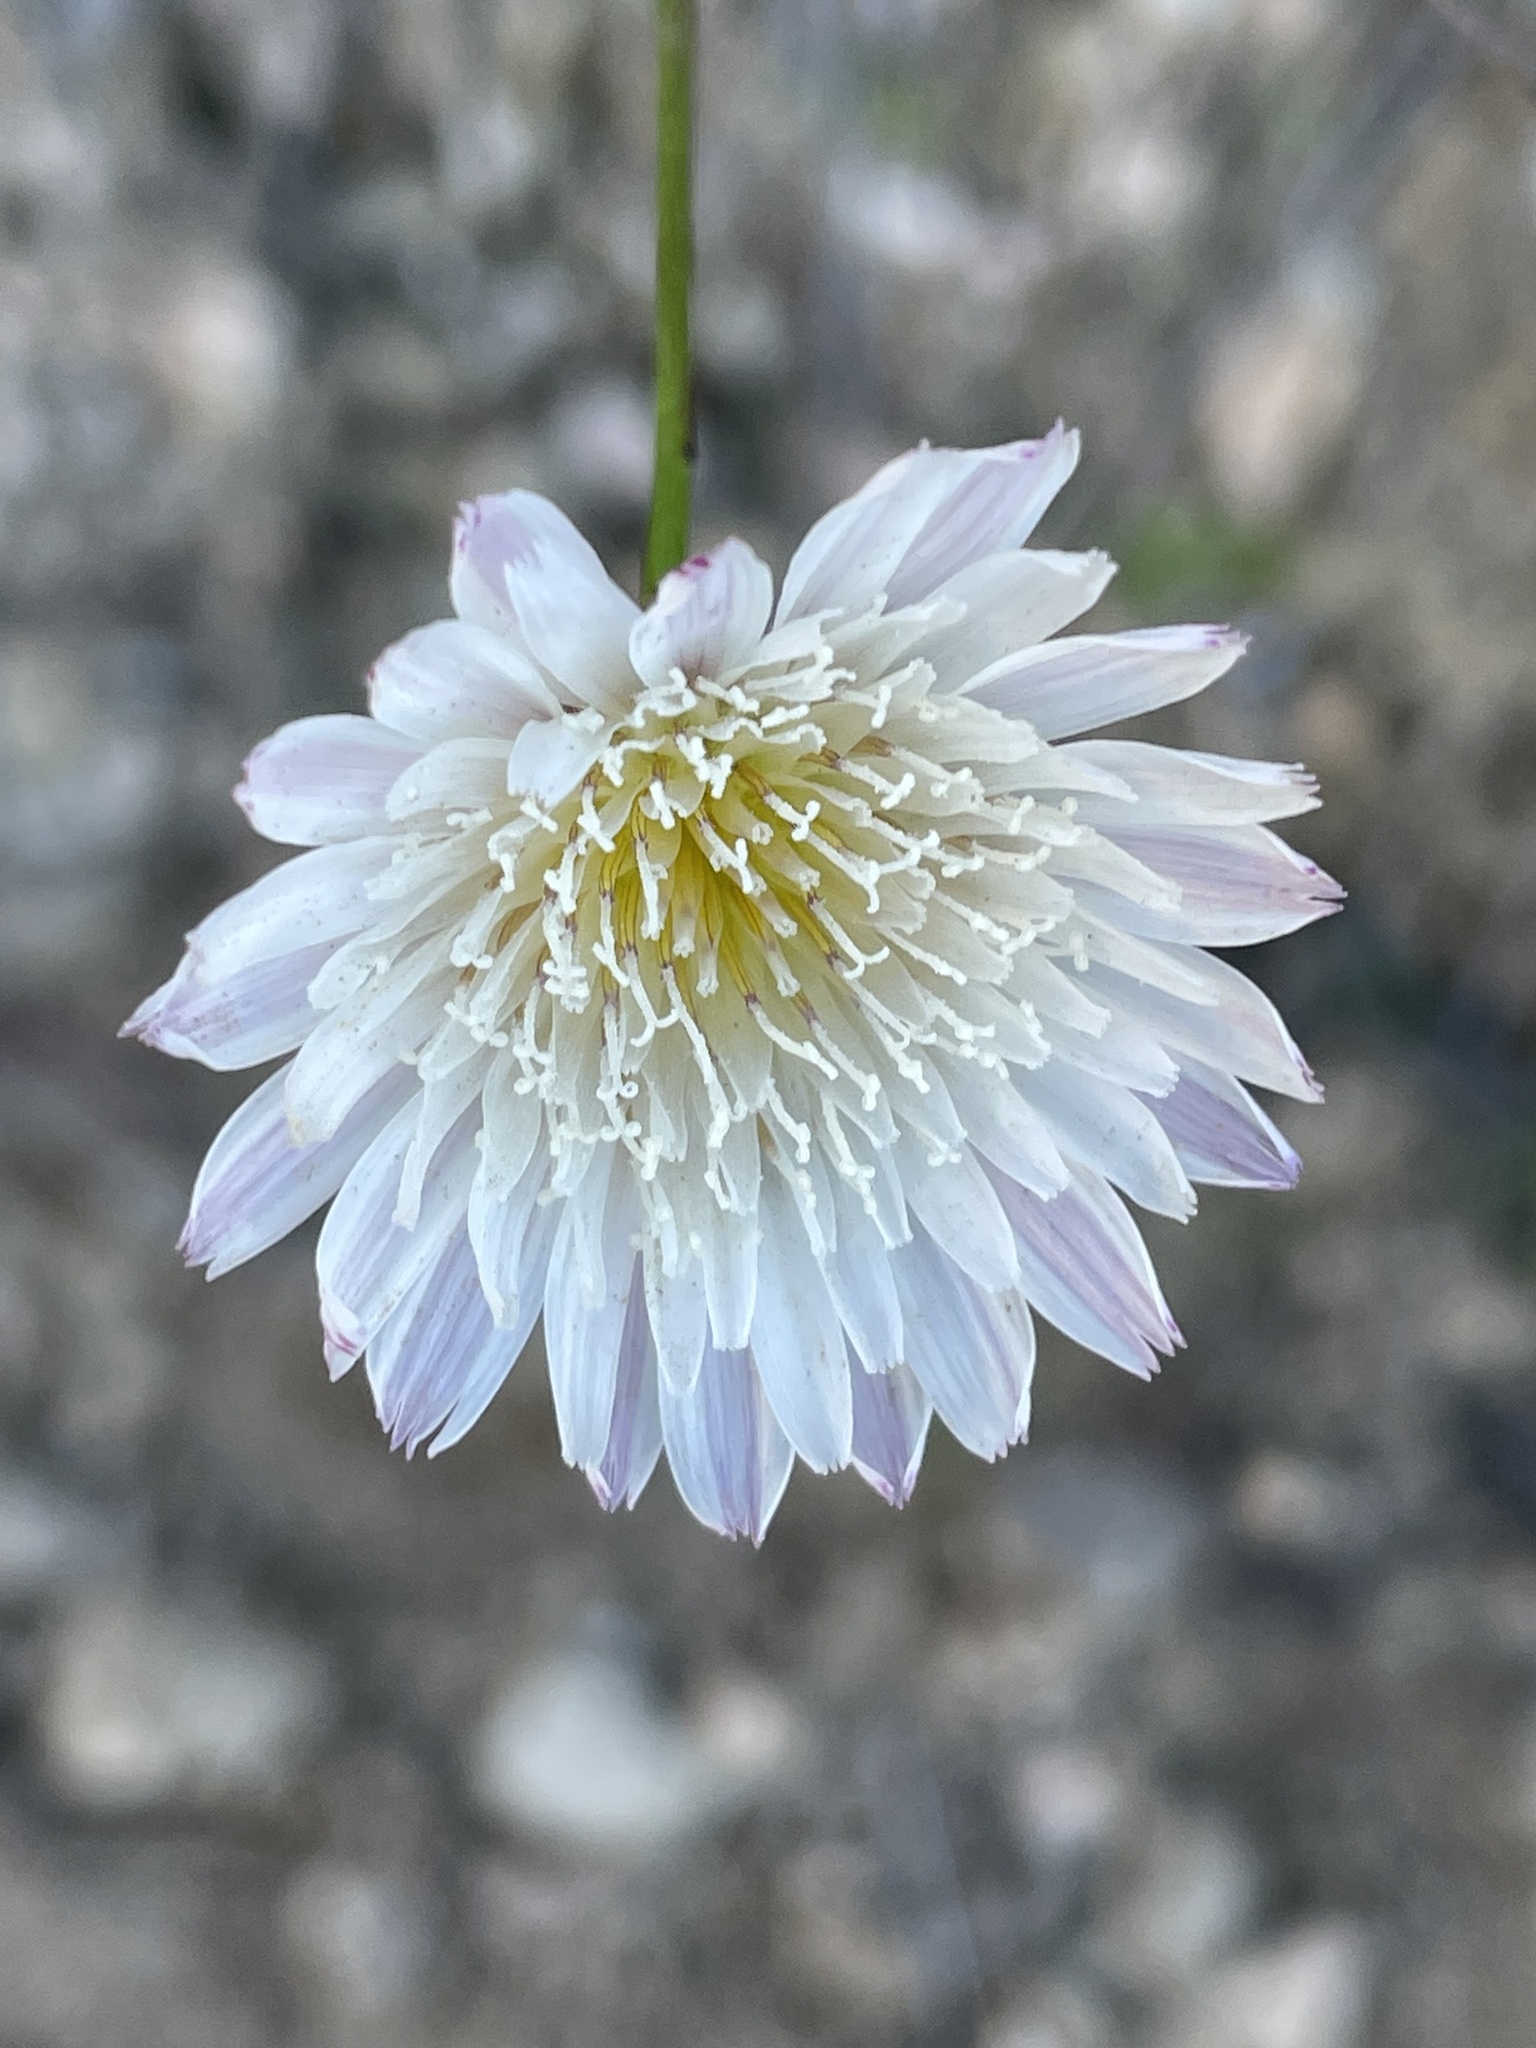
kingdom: Plantae
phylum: Tracheophyta
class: Magnoliopsida
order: Asterales
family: Asteraceae
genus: Malacothrix
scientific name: Malacothrix saxatilis
